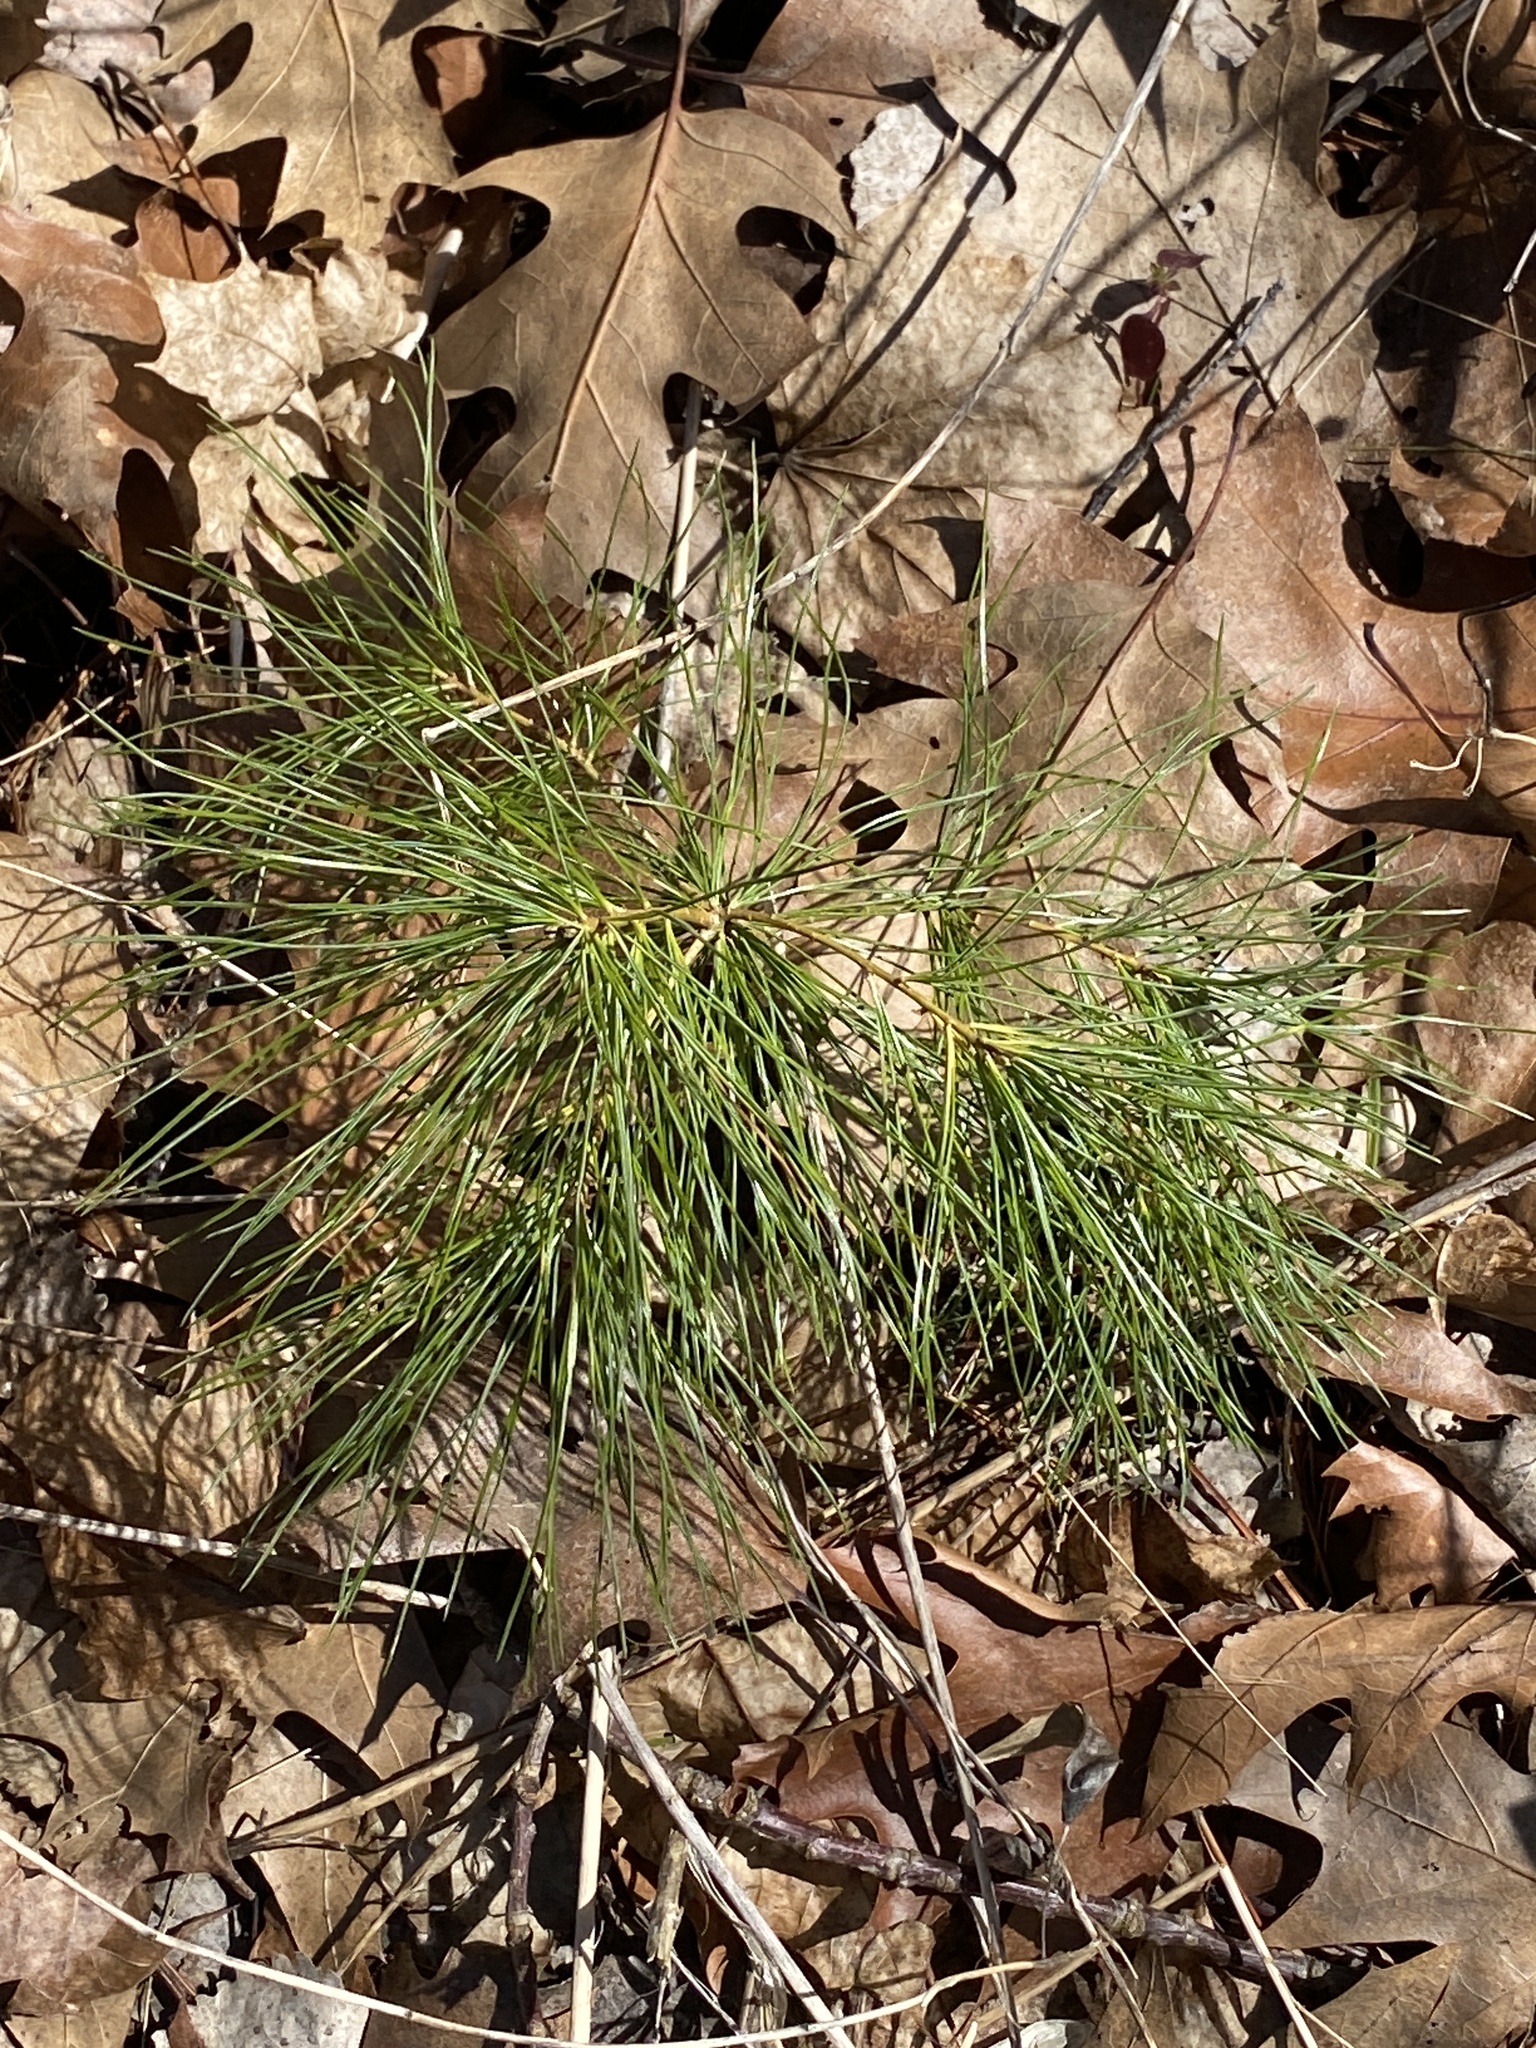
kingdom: Plantae
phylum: Tracheophyta
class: Pinopsida
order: Pinales
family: Pinaceae
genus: Pinus
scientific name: Pinus strobus
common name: Weymouth pine
